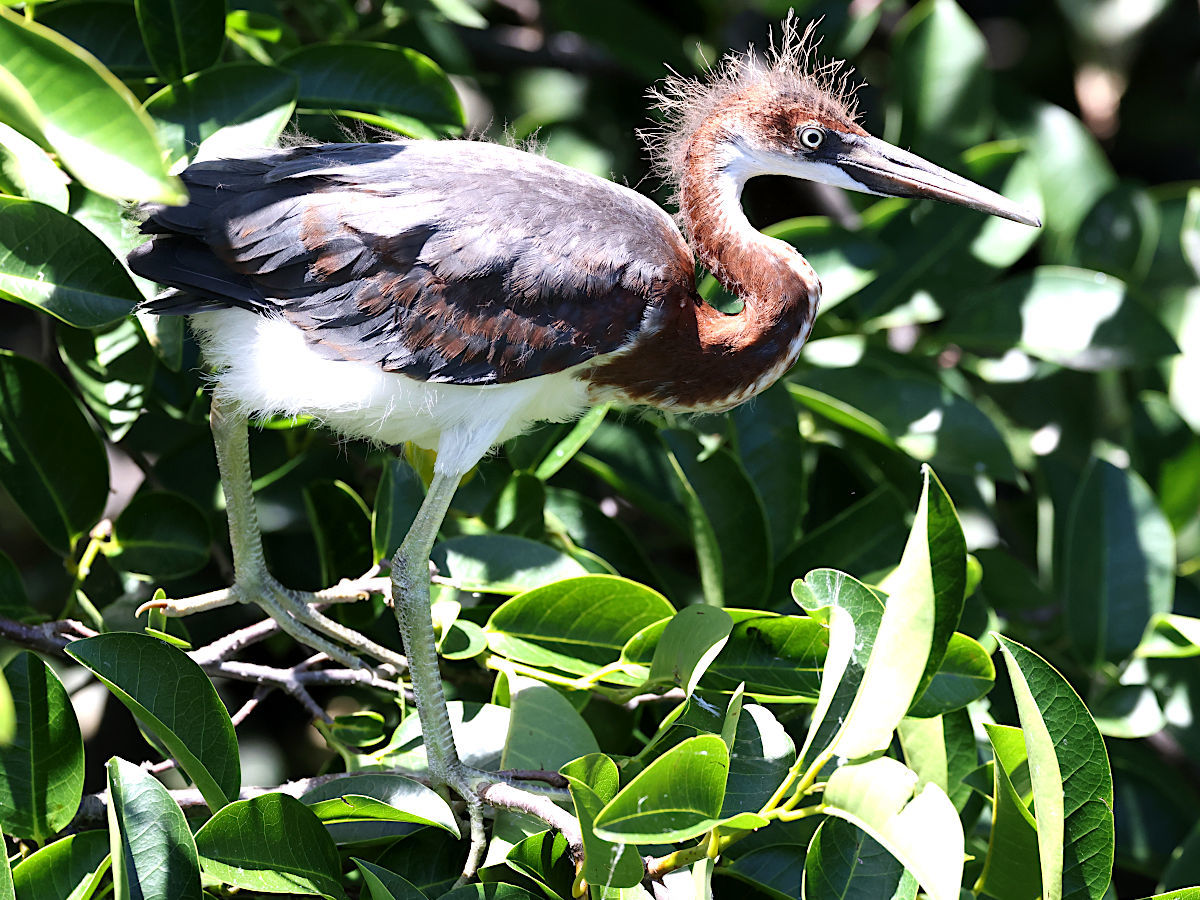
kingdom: Animalia
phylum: Chordata
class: Aves
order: Pelecaniformes
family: Ardeidae
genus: Egretta
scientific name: Egretta tricolor
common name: Tricolored heron
